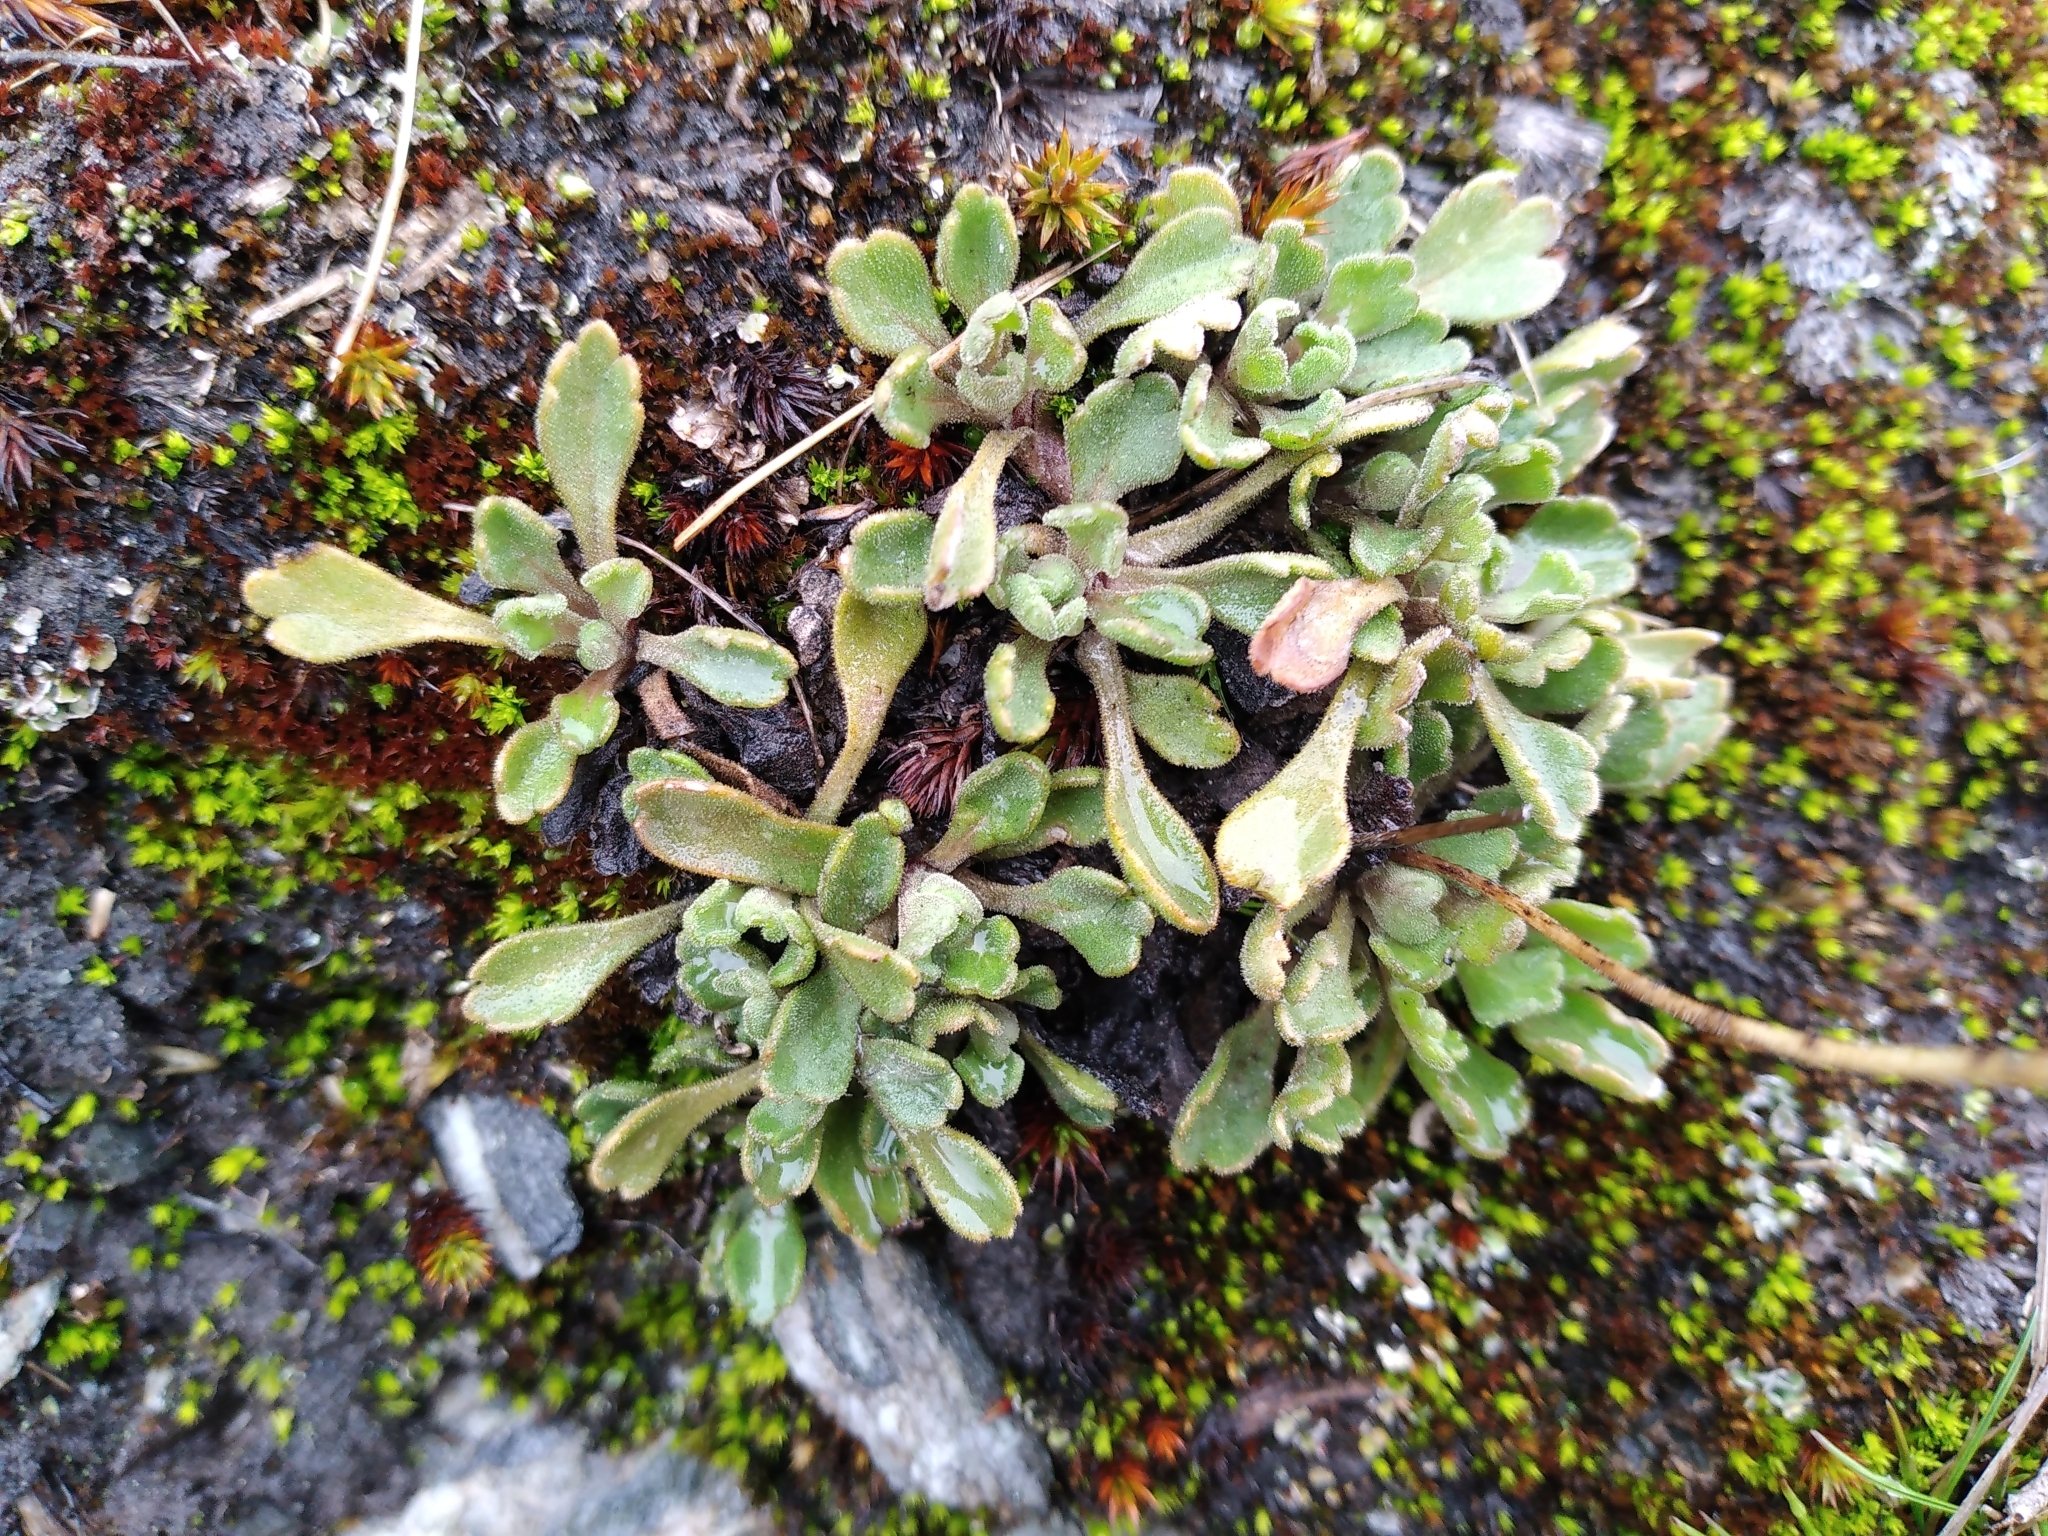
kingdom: Plantae
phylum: Tracheophyta
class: Magnoliopsida
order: Asterales
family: Asteraceae
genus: Brachyscome
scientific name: Brachyscome montana
